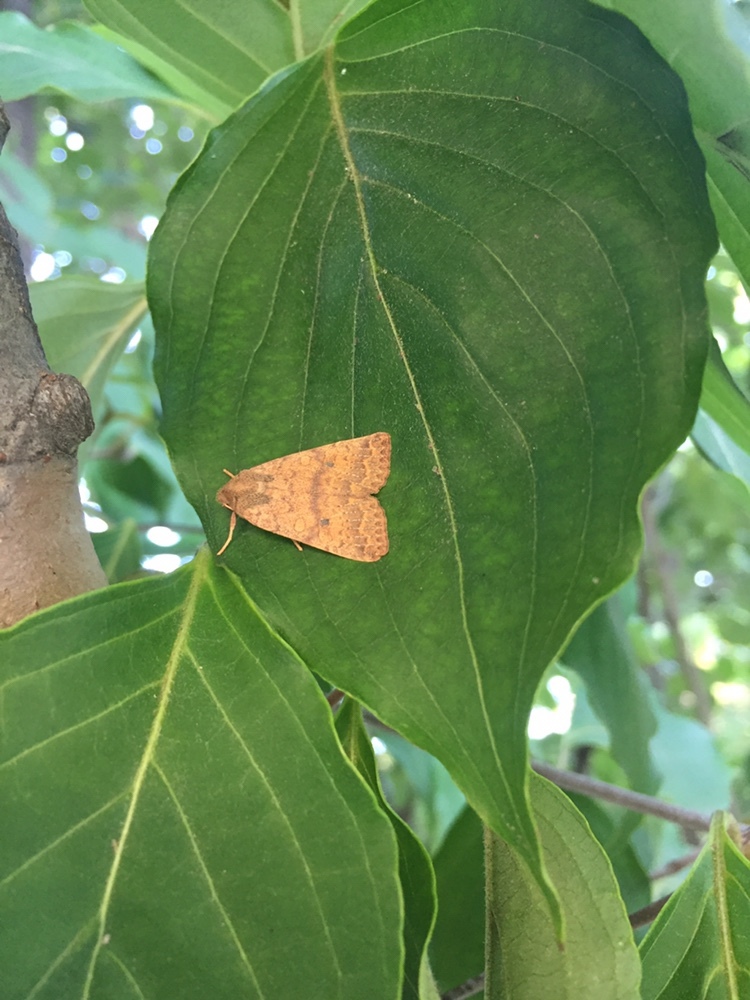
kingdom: Animalia
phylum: Arthropoda
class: Insecta
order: Lepidoptera
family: Noctuidae
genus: Agrochola
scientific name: Agrochola bicolorago
